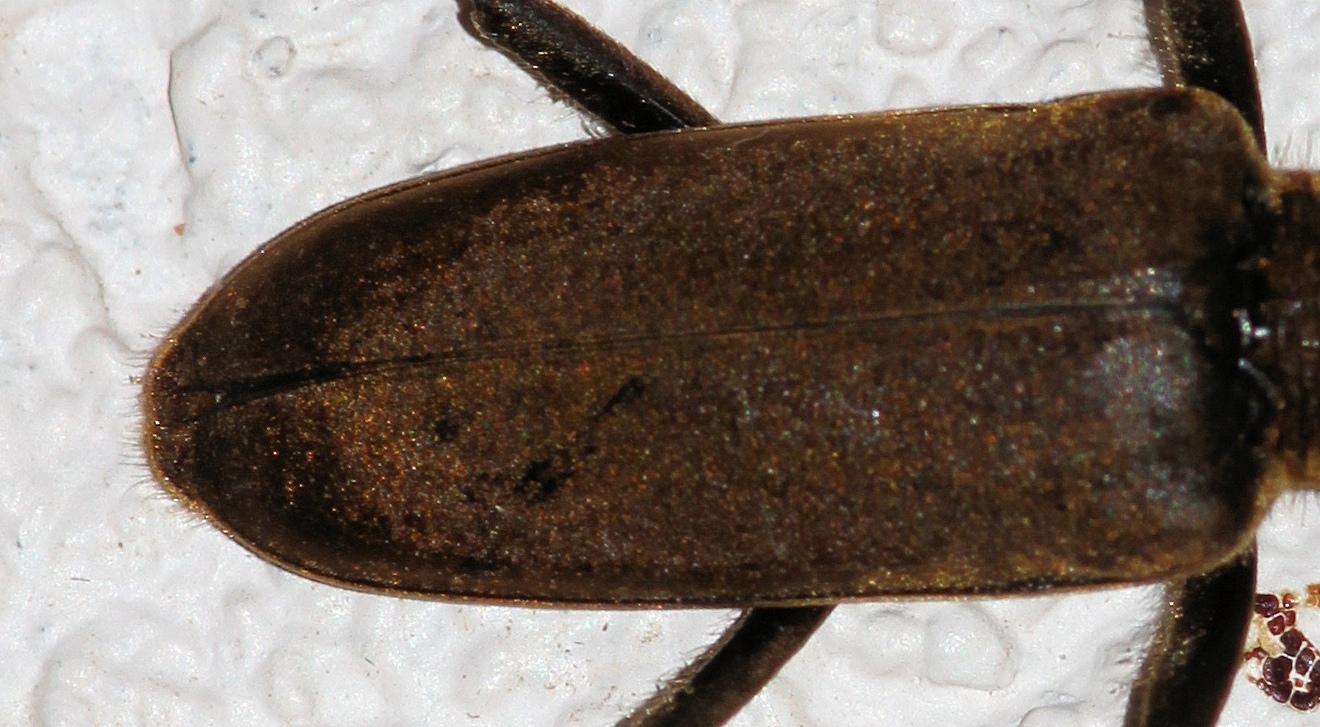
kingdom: Animalia
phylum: Arthropoda
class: Insecta
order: Coleoptera
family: Cerambycidae
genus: Prosphilus
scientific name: Prosphilus serraticornis
